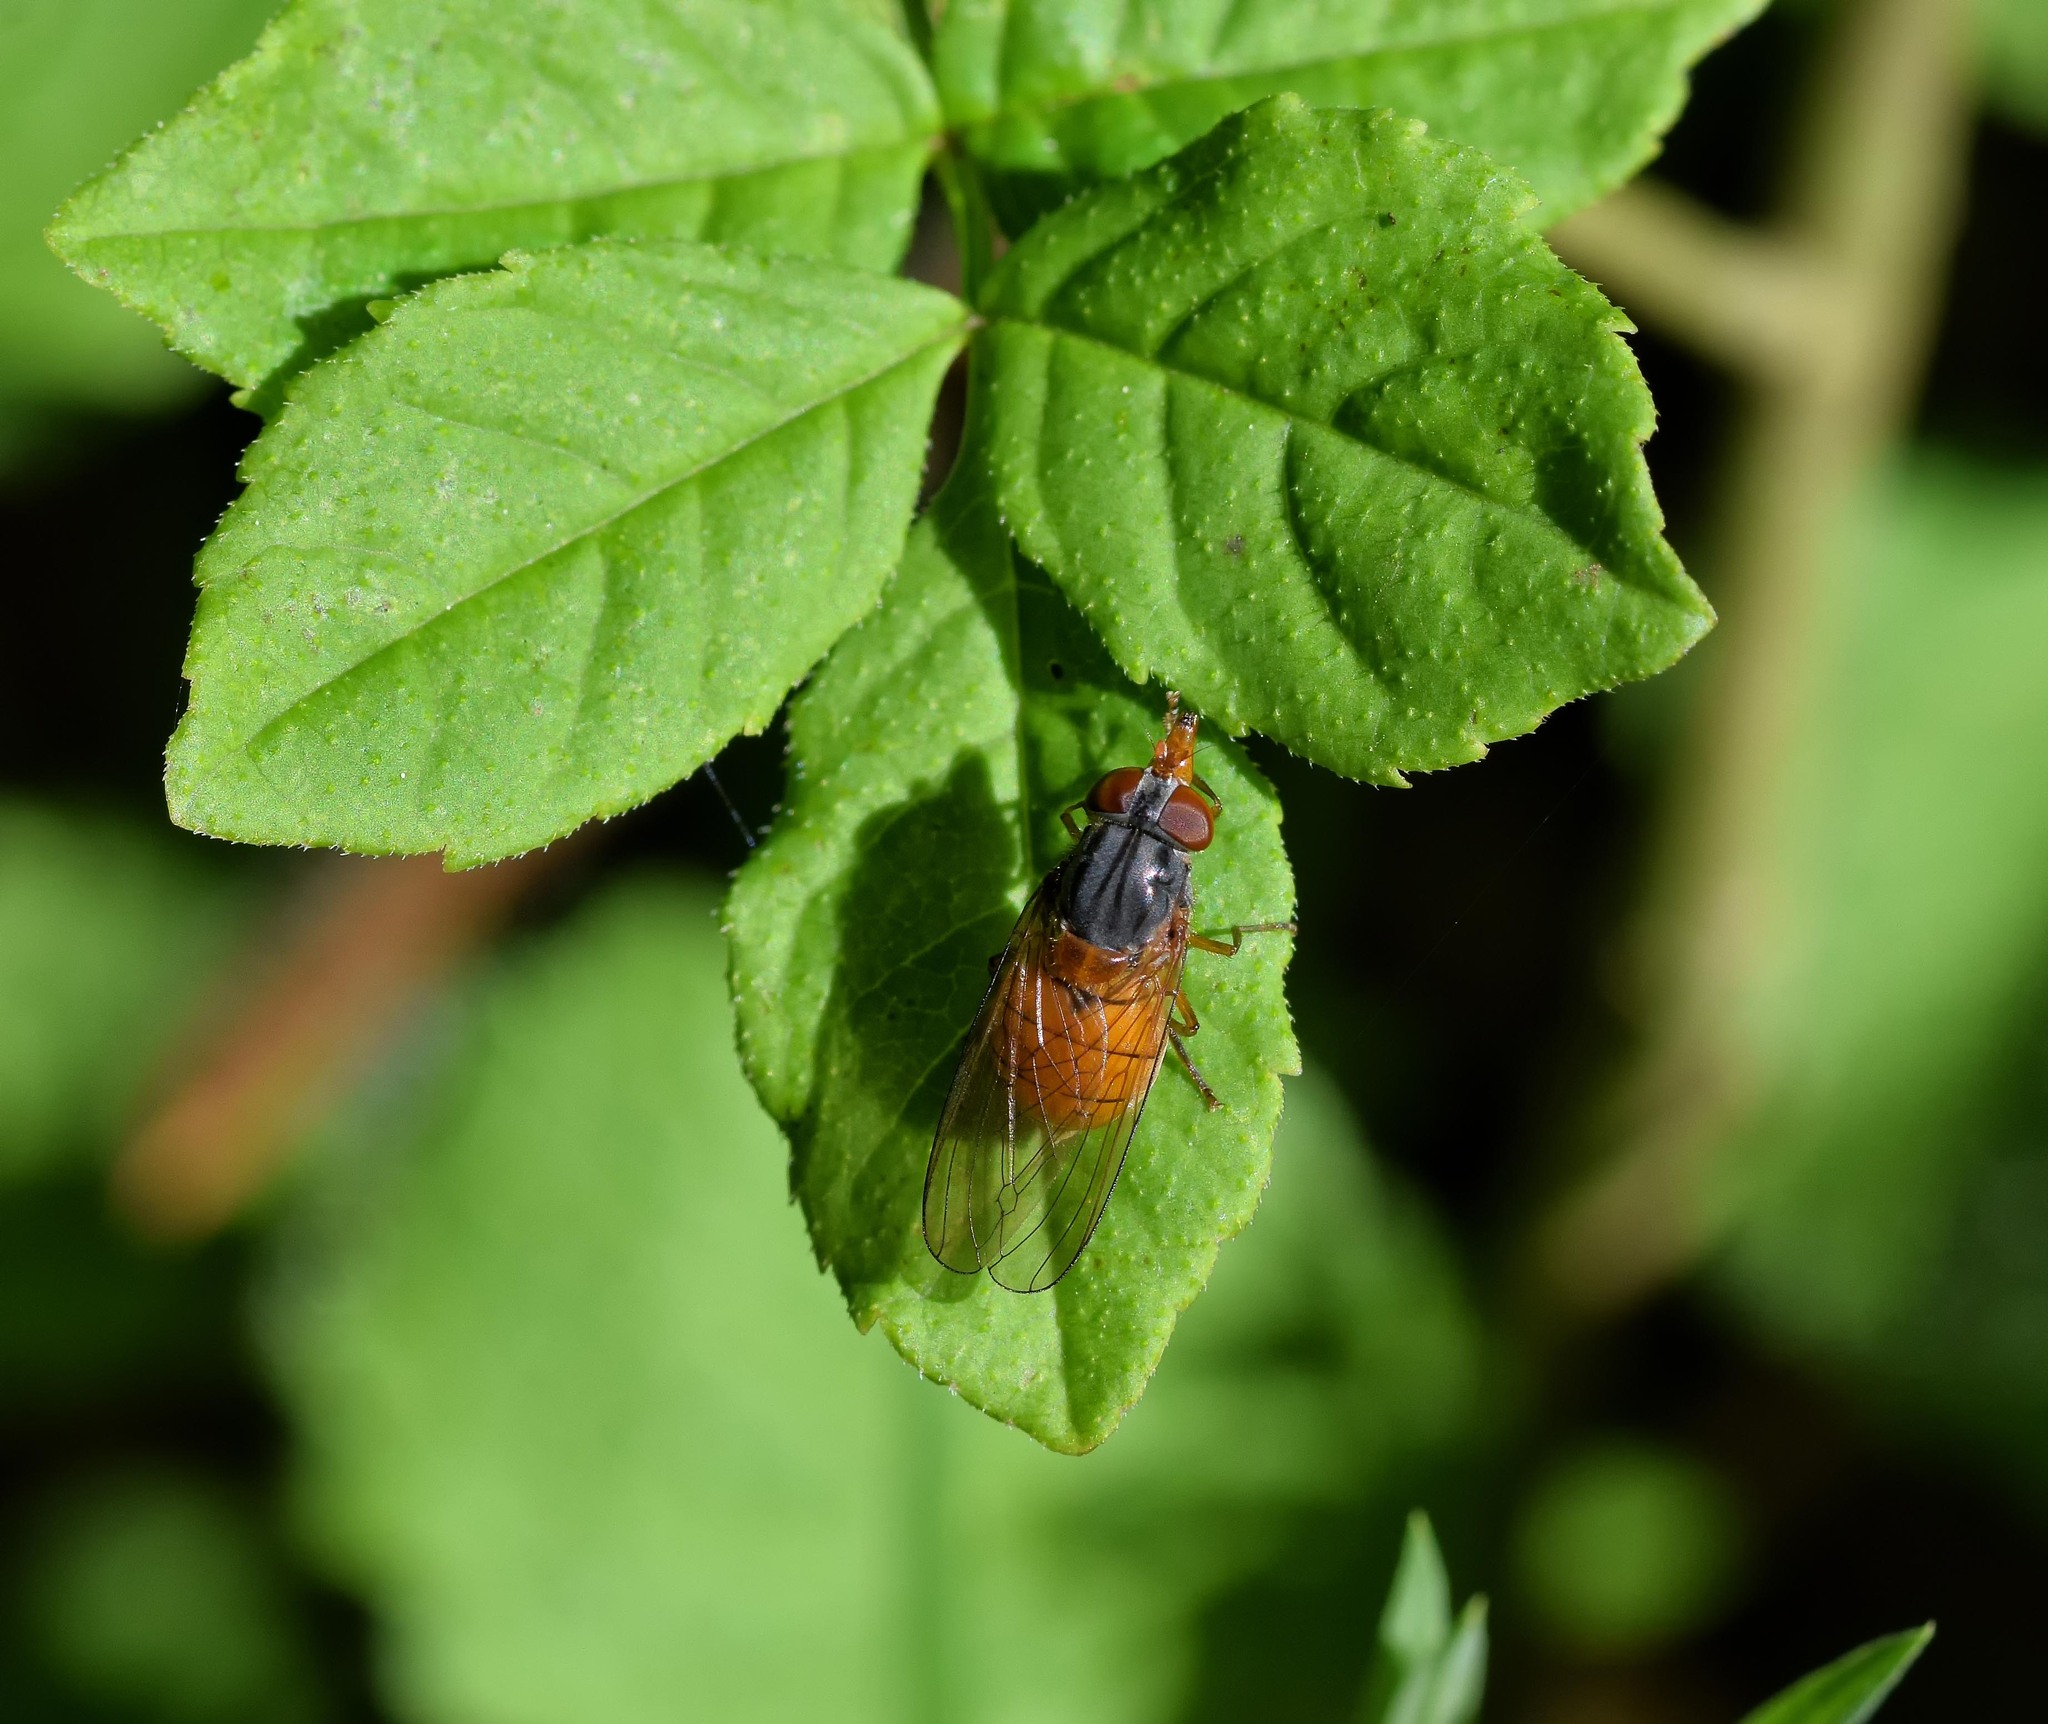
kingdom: Animalia
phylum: Arthropoda
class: Insecta
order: Diptera
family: Syrphidae
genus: Rhingia
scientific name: Rhingia rostrata
